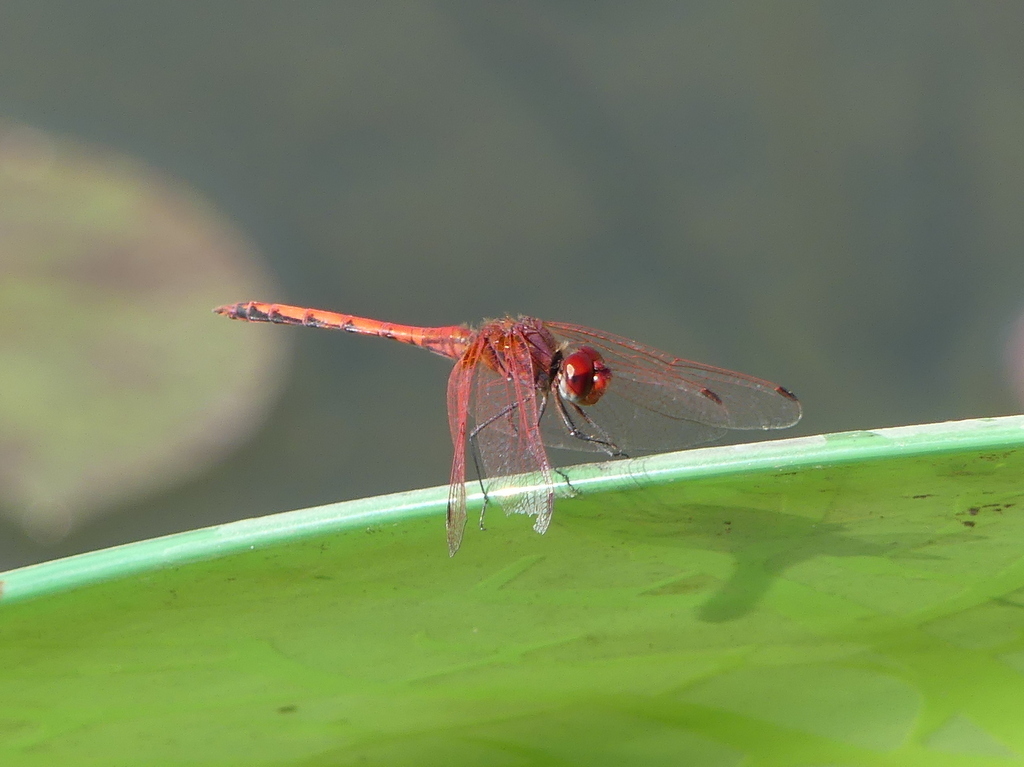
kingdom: Animalia
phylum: Arthropoda
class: Insecta
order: Odonata
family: Libellulidae
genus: Trithemis
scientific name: Trithemis arteriosa
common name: Red-veined dropwing
